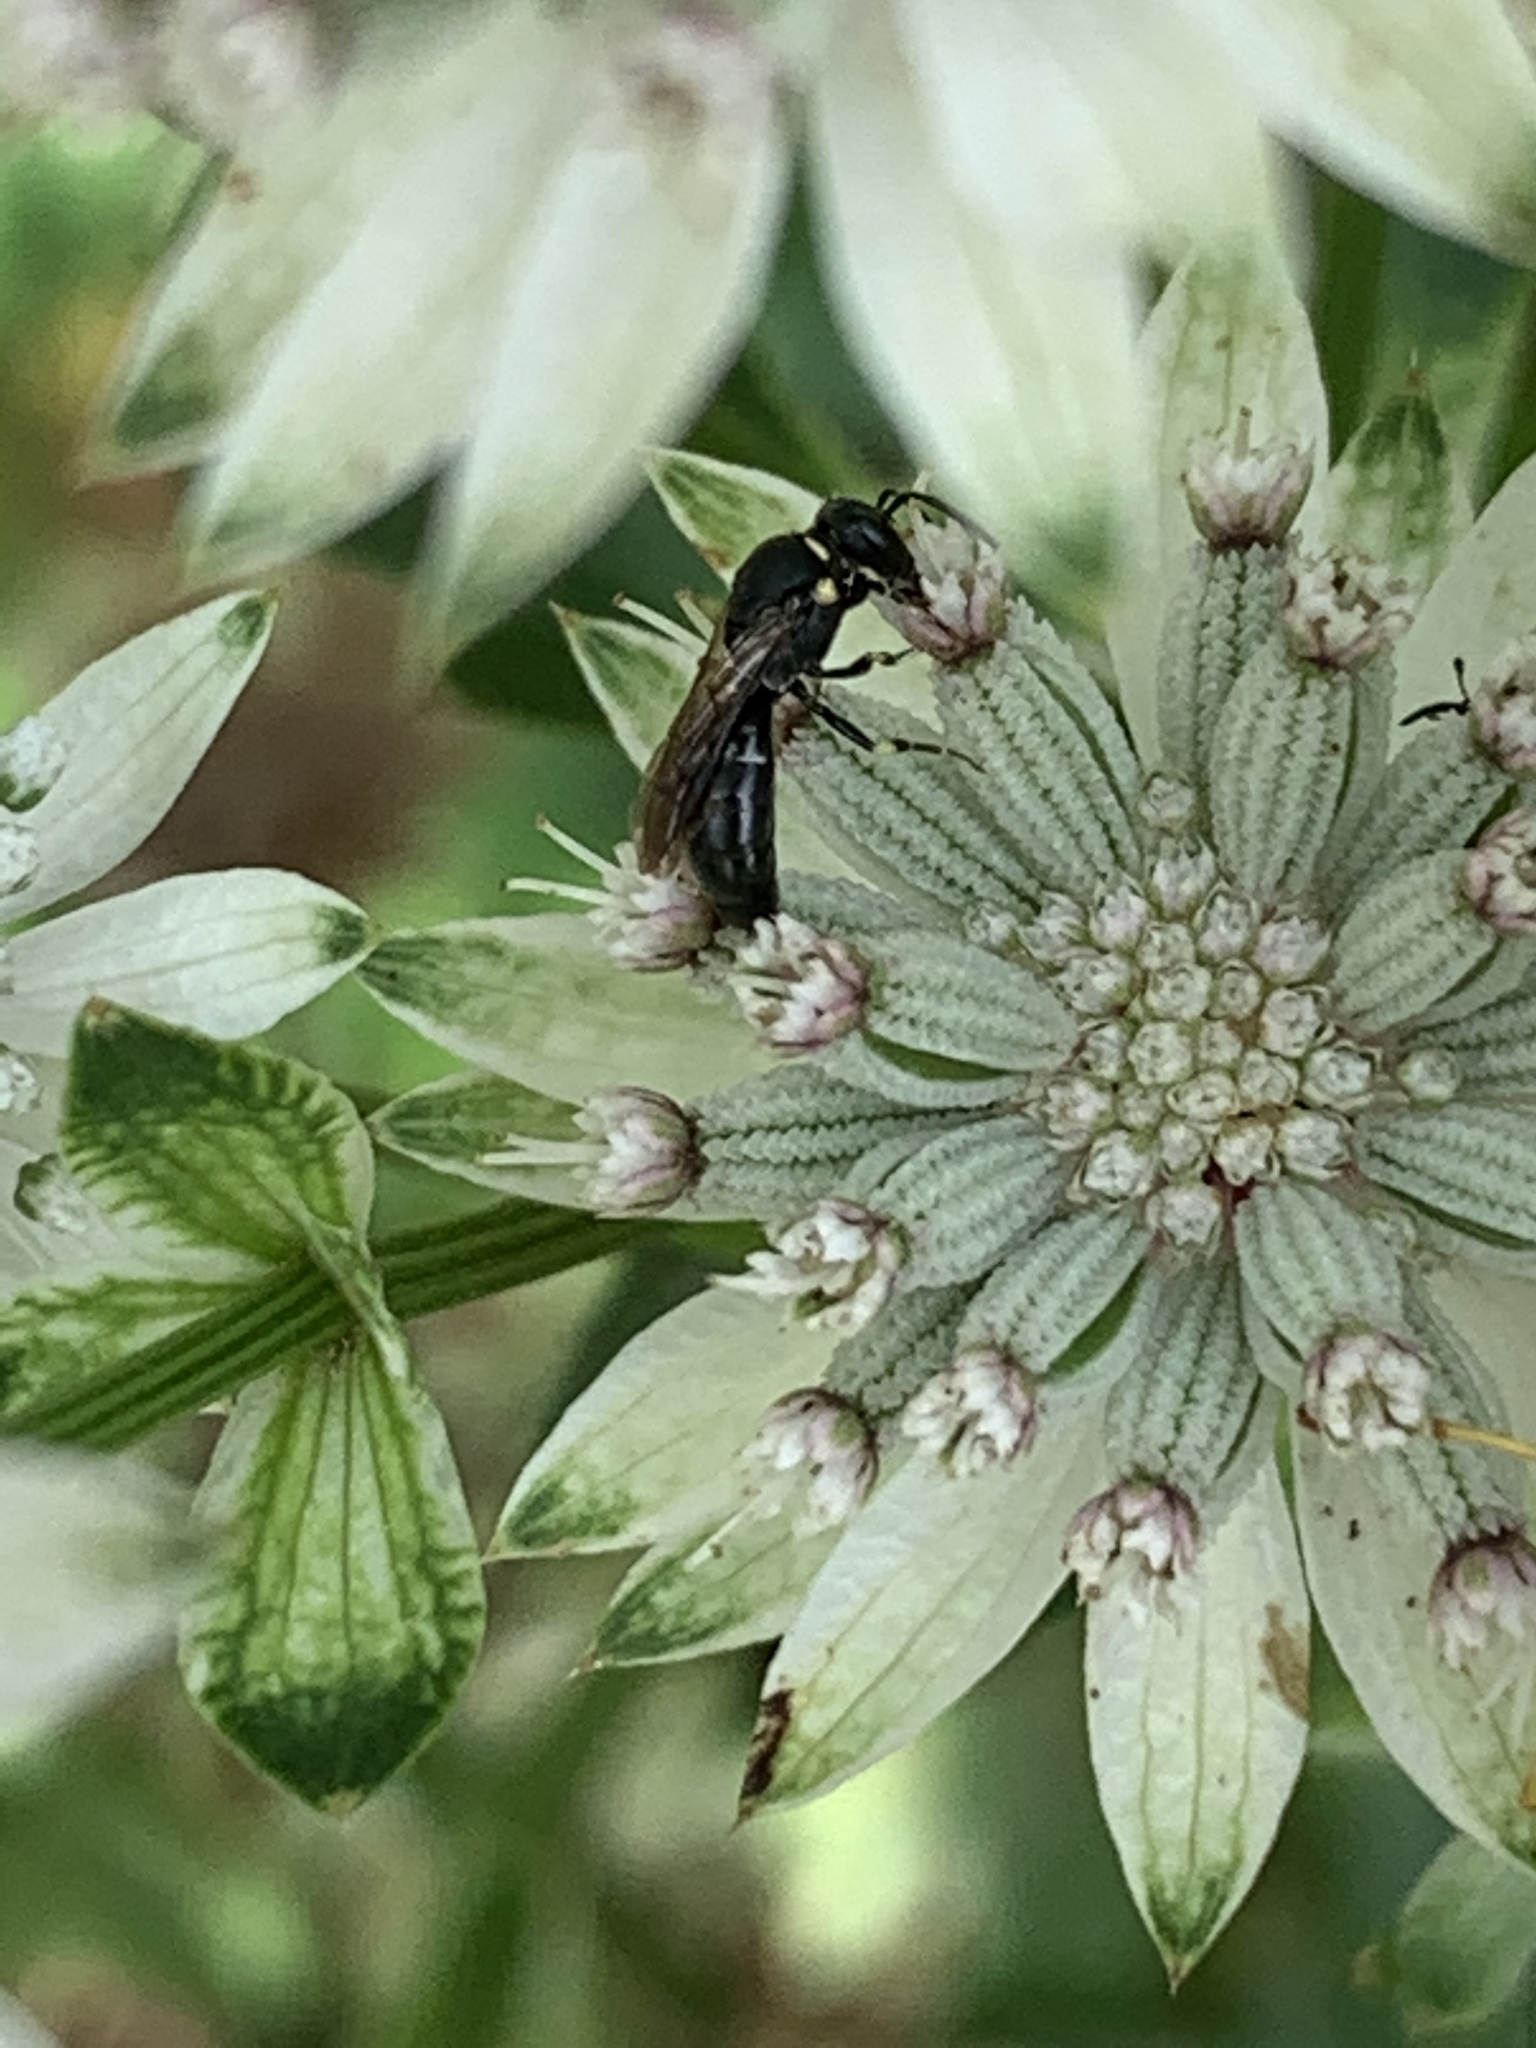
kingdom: Animalia
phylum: Arthropoda
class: Insecta
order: Hymenoptera
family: Colletidae
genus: Hylaeus
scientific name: Hylaeus modestus
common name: Yellow-faced bee
